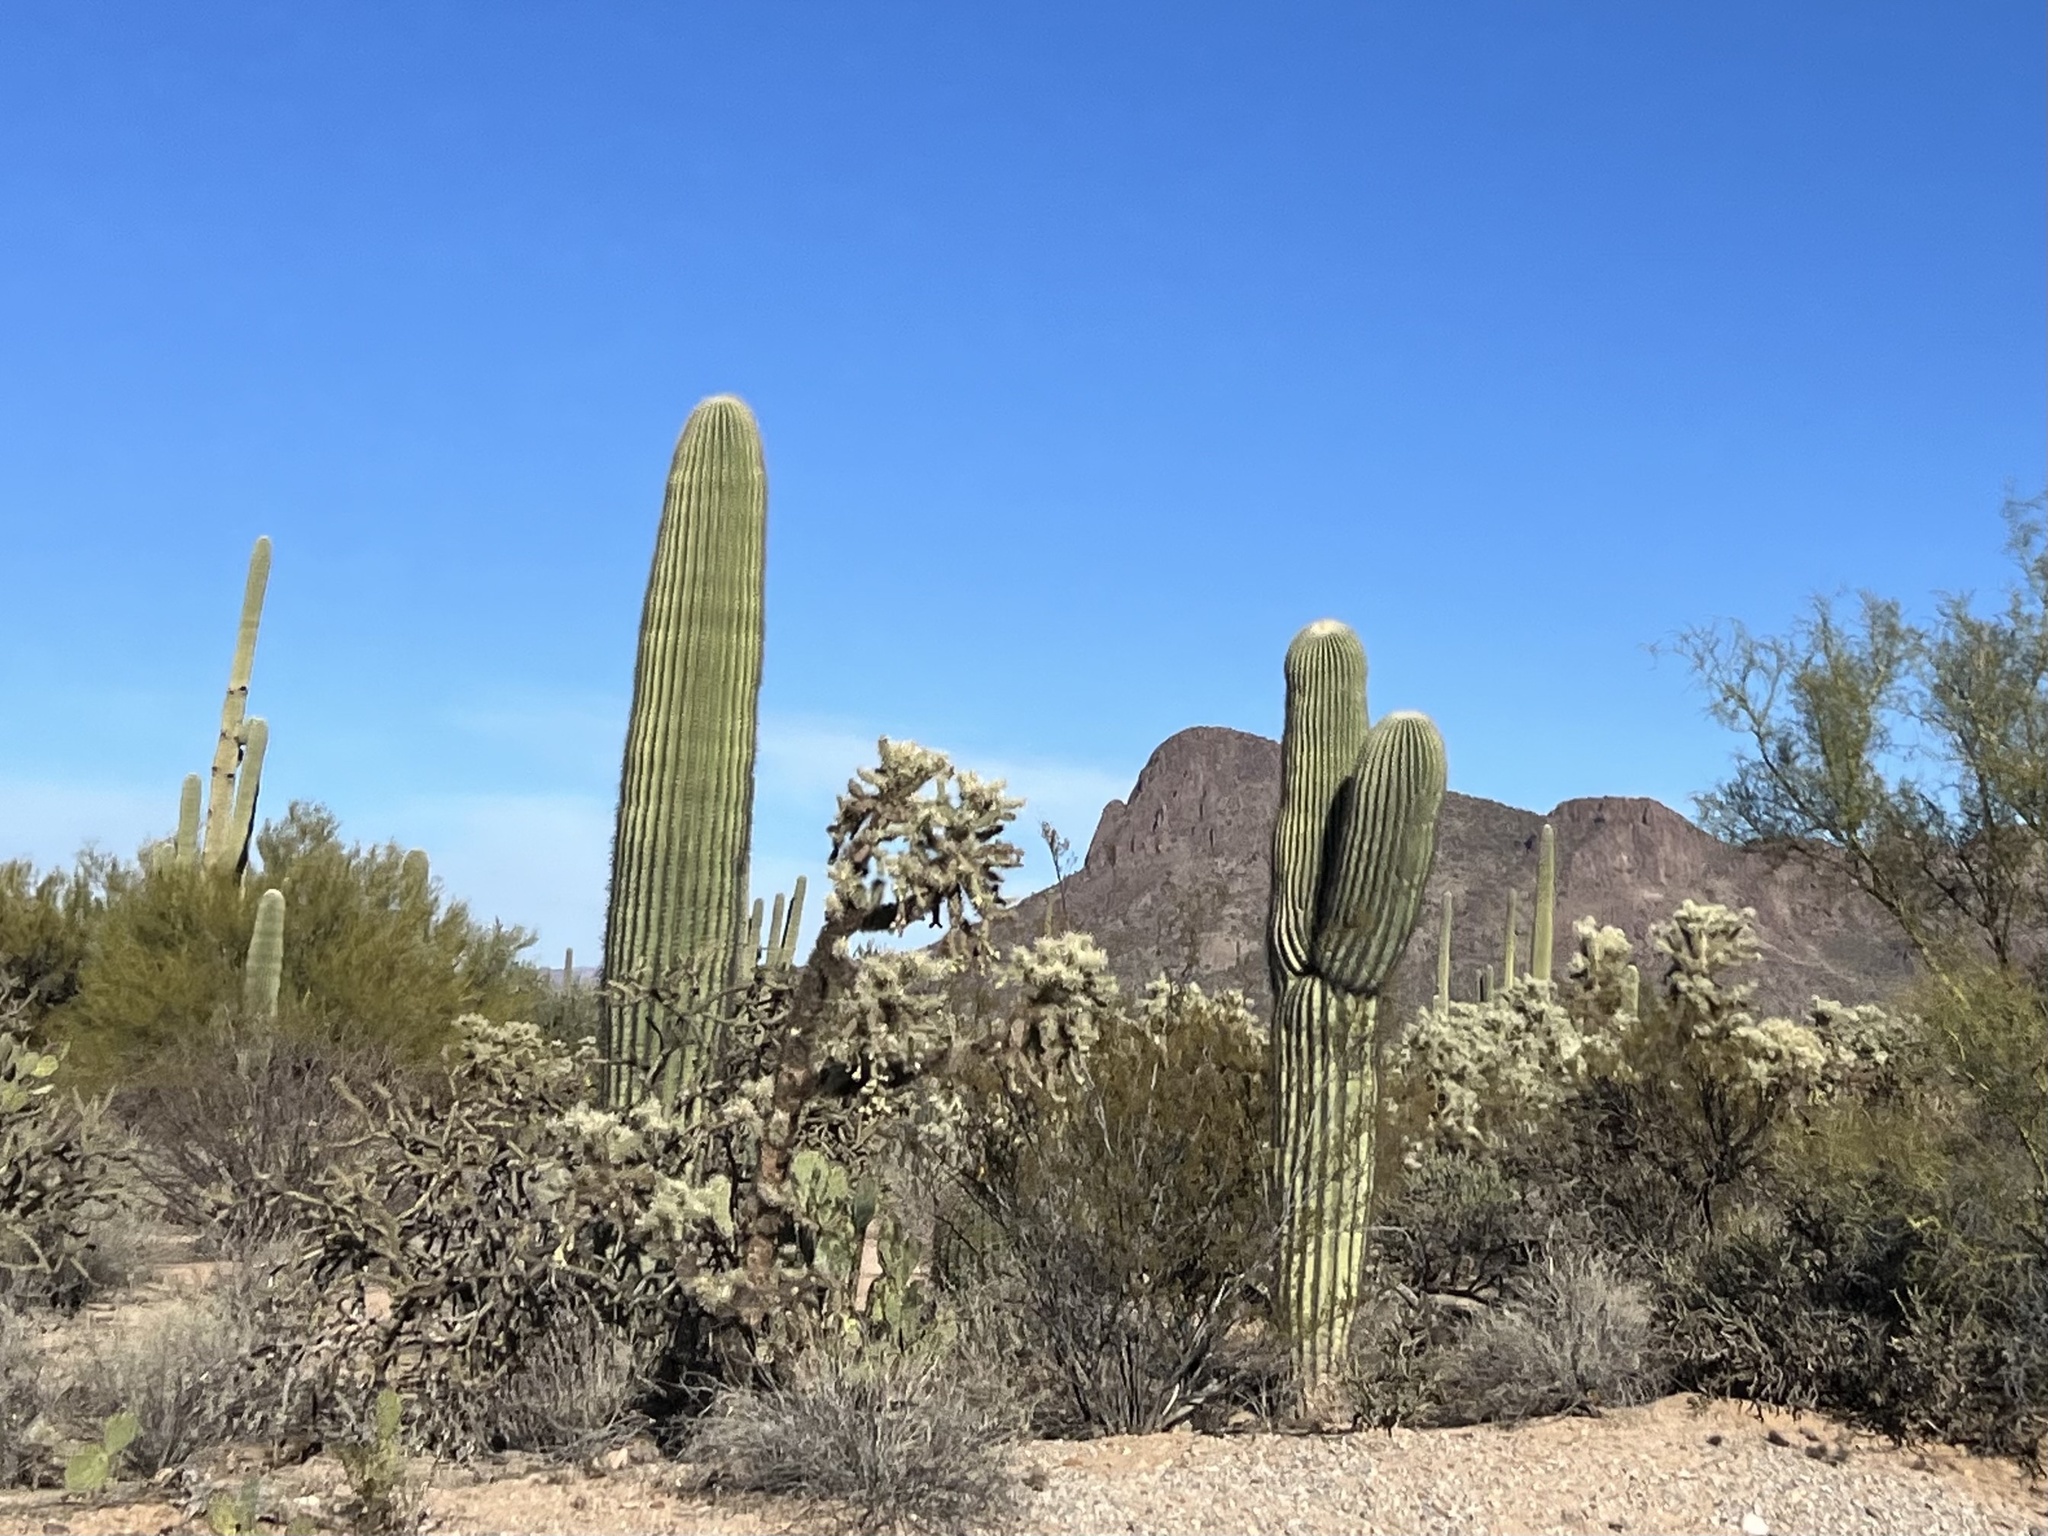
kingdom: Plantae
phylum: Tracheophyta
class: Magnoliopsida
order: Caryophyllales
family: Cactaceae
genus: Carnegiea
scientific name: Carnegiea gigantea
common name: Saguaro
